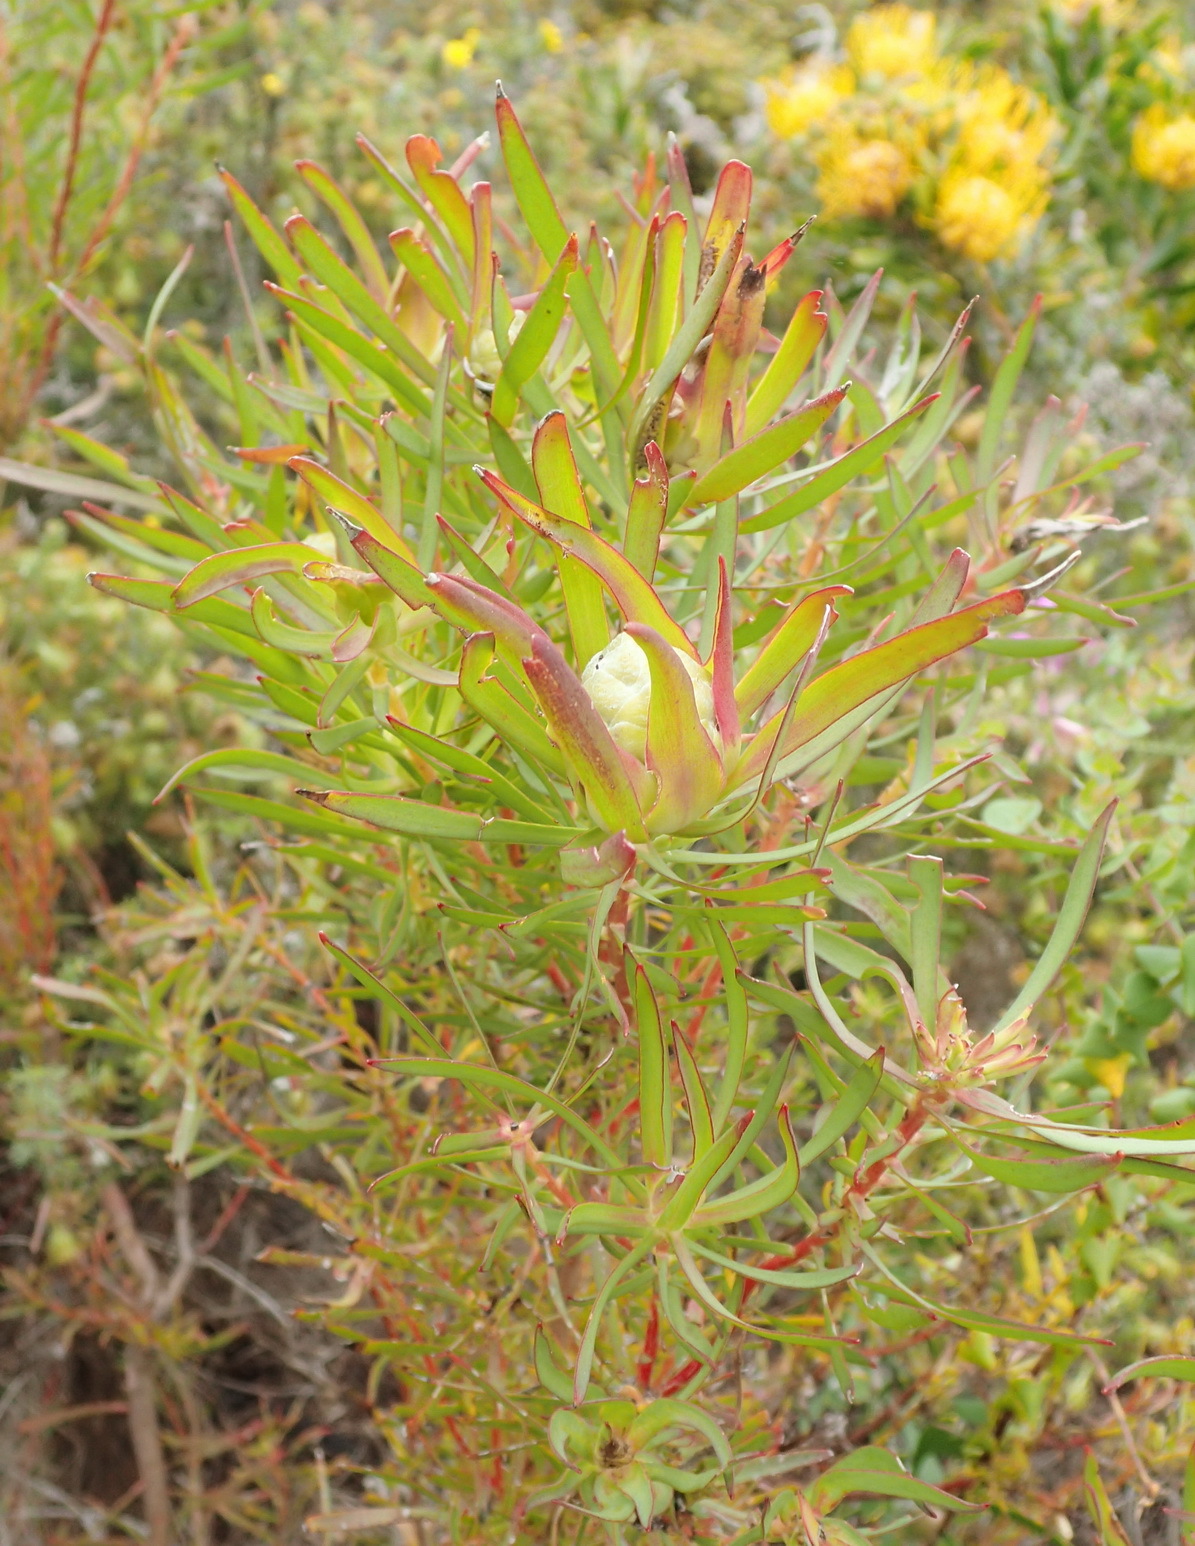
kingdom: Plantae
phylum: Tracheophyta
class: Magnoliopsida
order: Proteales
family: Proteaceae
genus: Leucadendron
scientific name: Leucadendron salignum
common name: Common sunshine conebush
